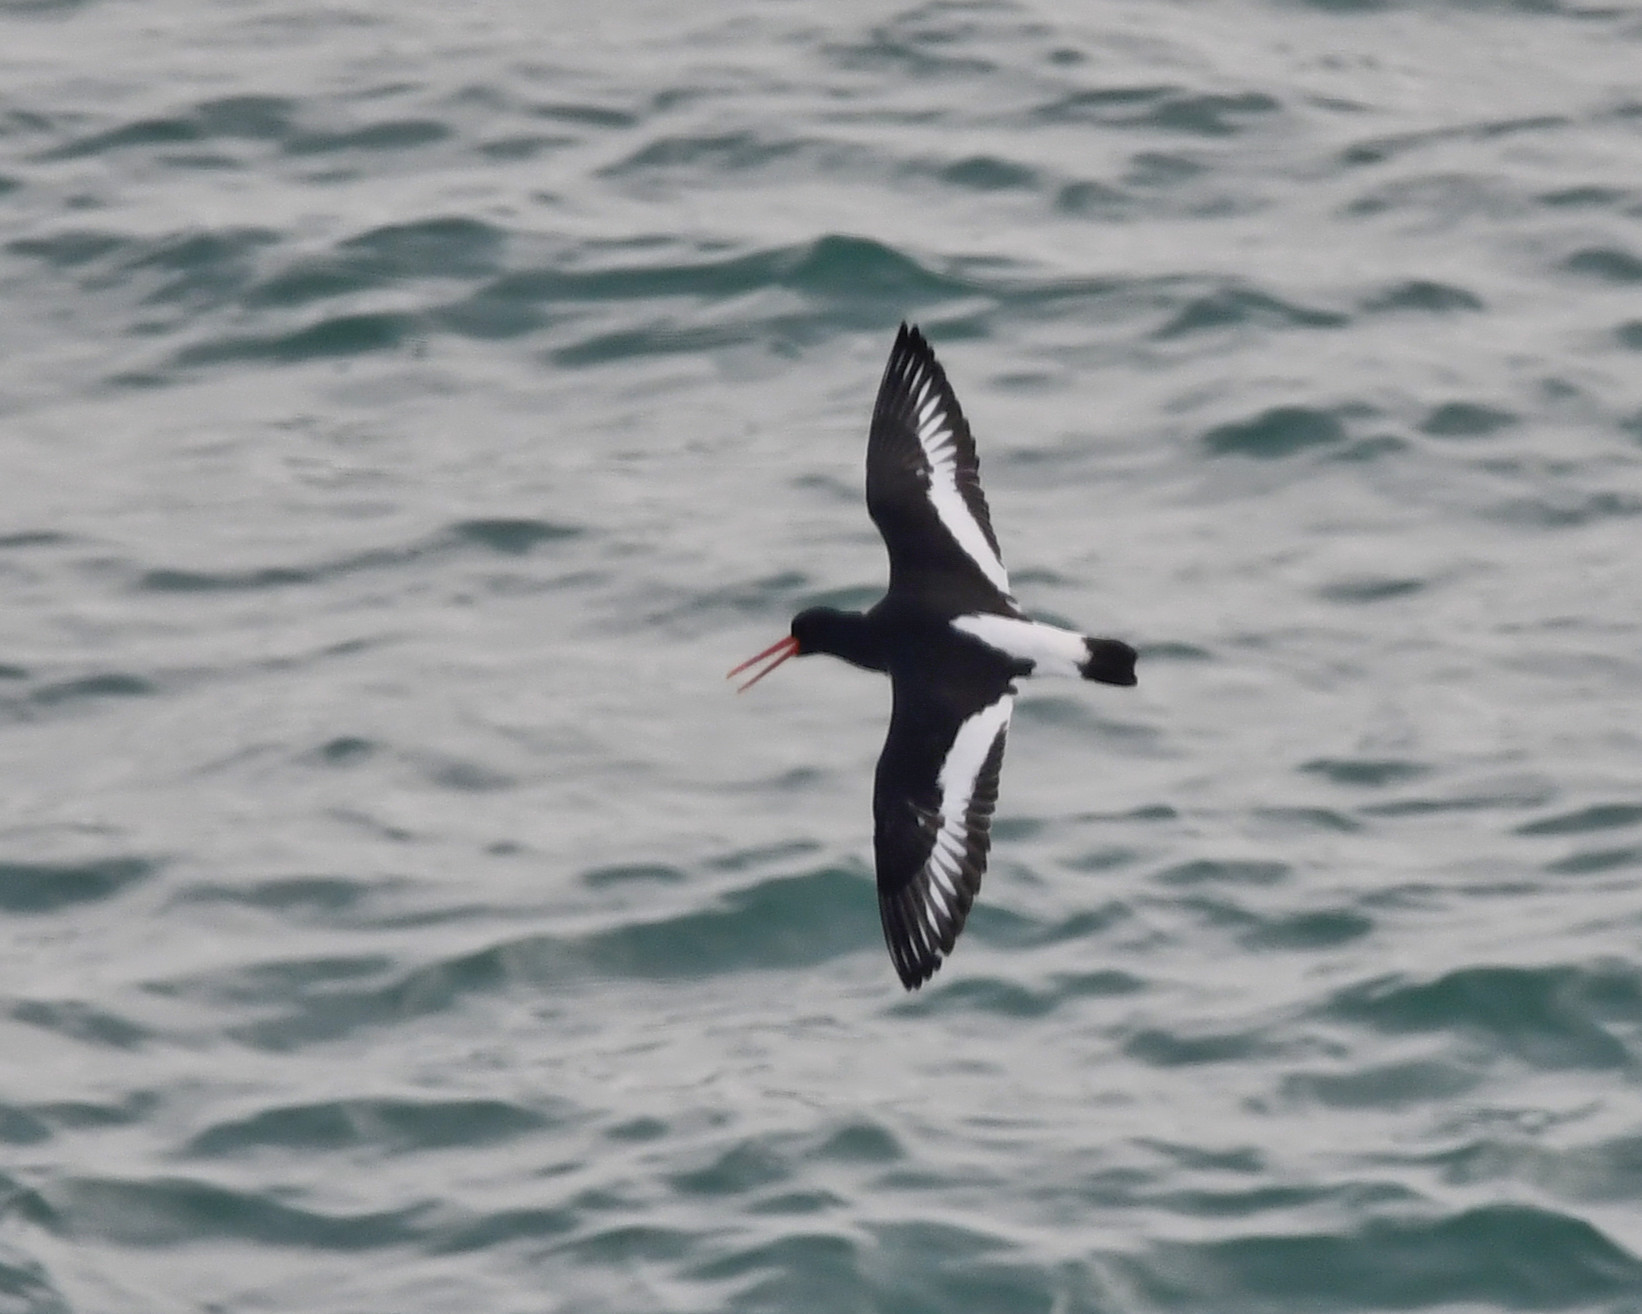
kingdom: Animalia
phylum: Chordata
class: Aves
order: Charadriiformes
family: Haematopodidae
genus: Haematopus
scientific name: Haematopus ostralegus
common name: Eurasian oystercatcher
